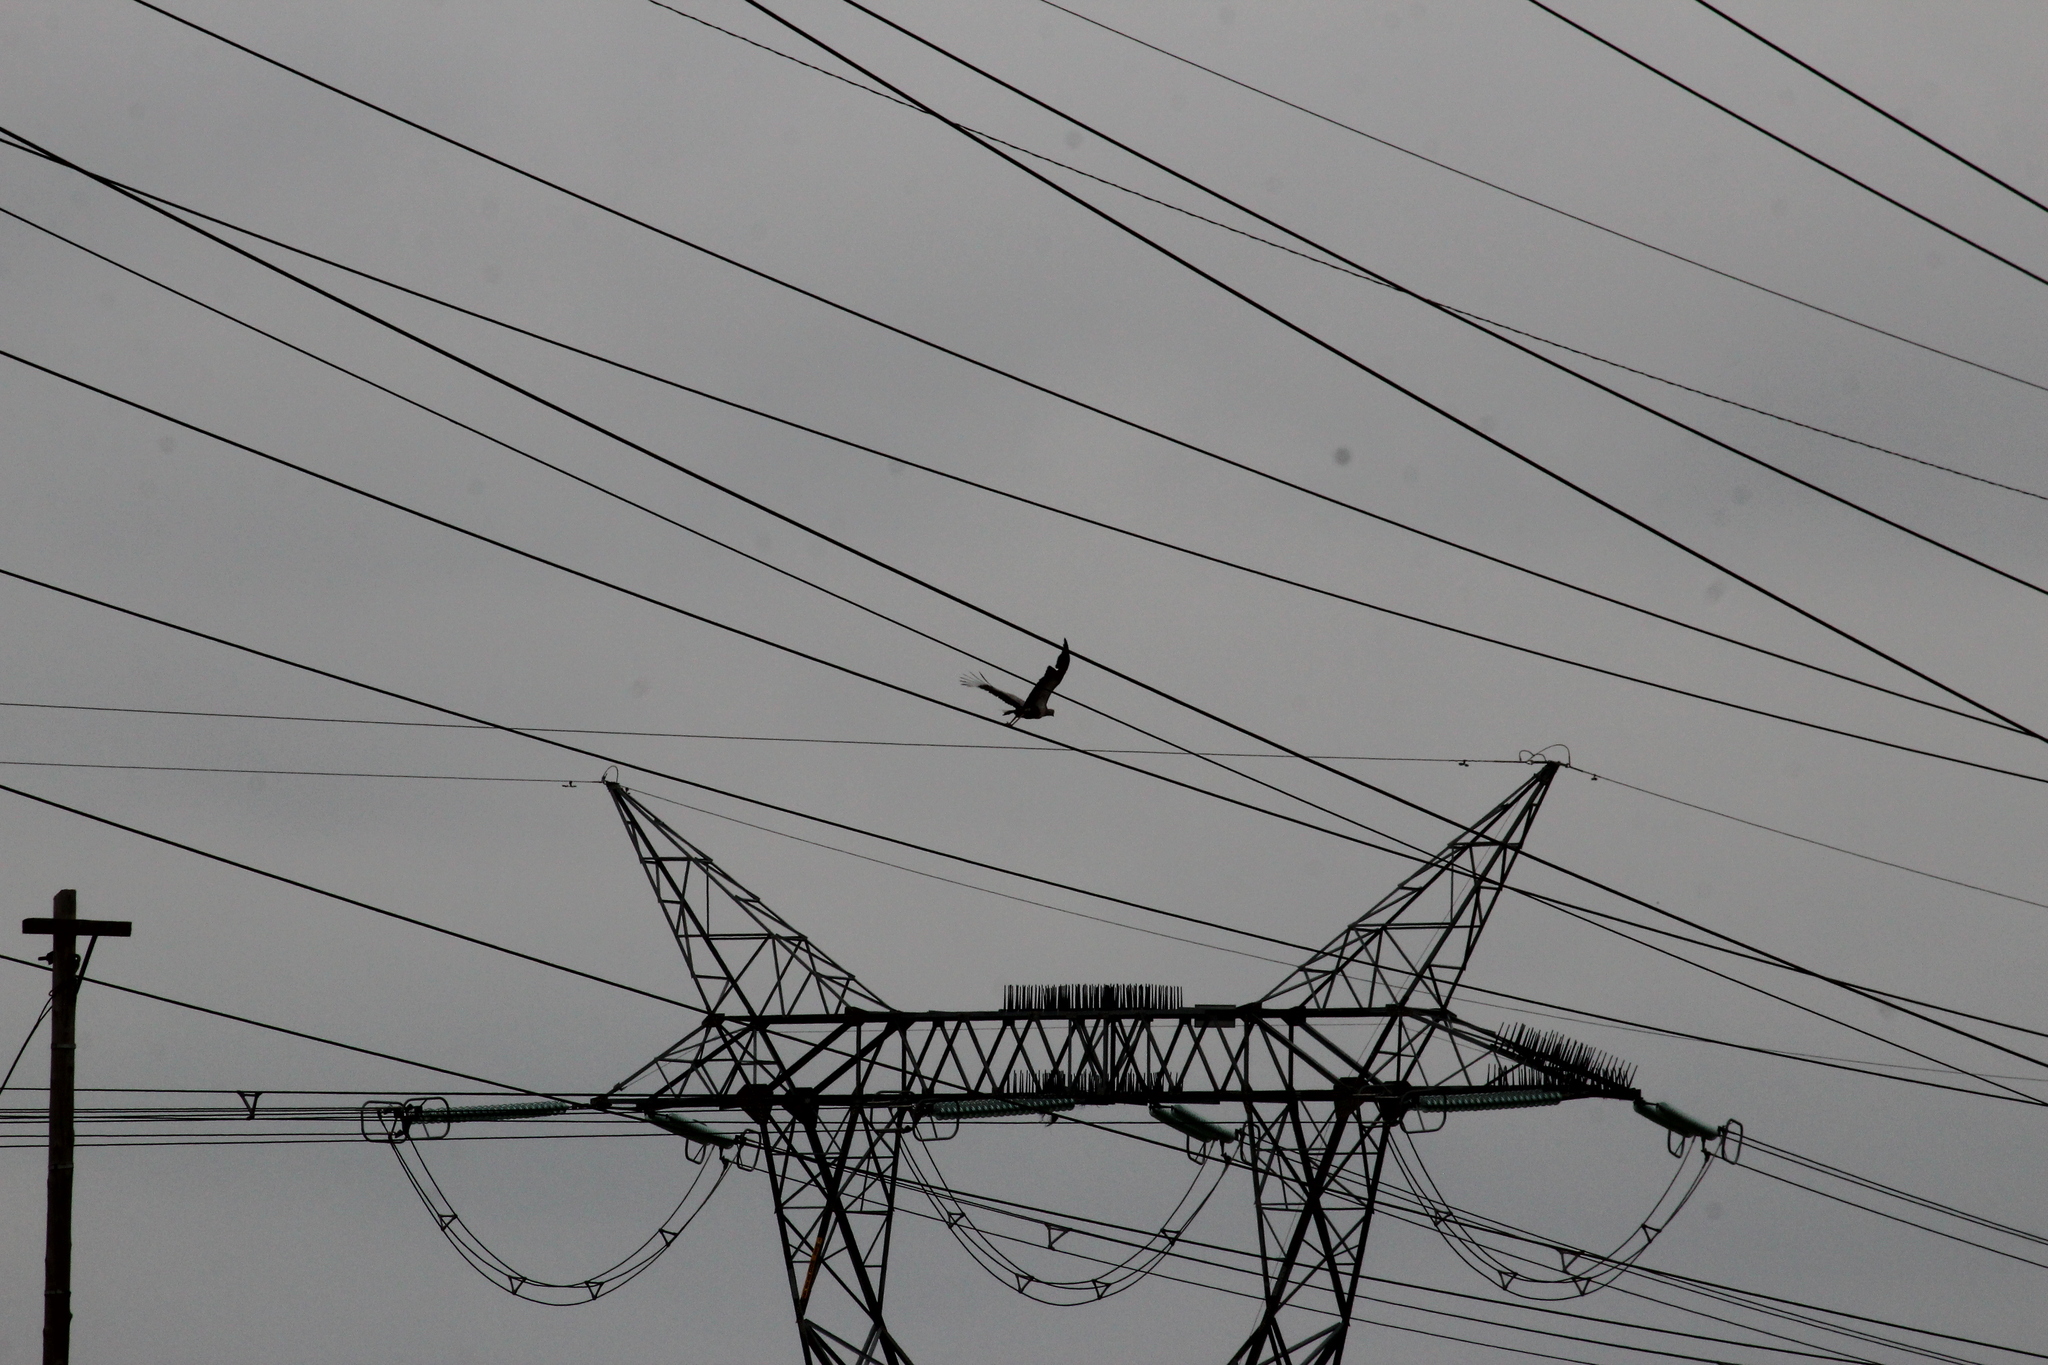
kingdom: Animalia
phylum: Chordata
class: Aves
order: Accipitriformes
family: Sagittariidae
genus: Sagittarius
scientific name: Sagittarius serpentarius
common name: Secretarybird
